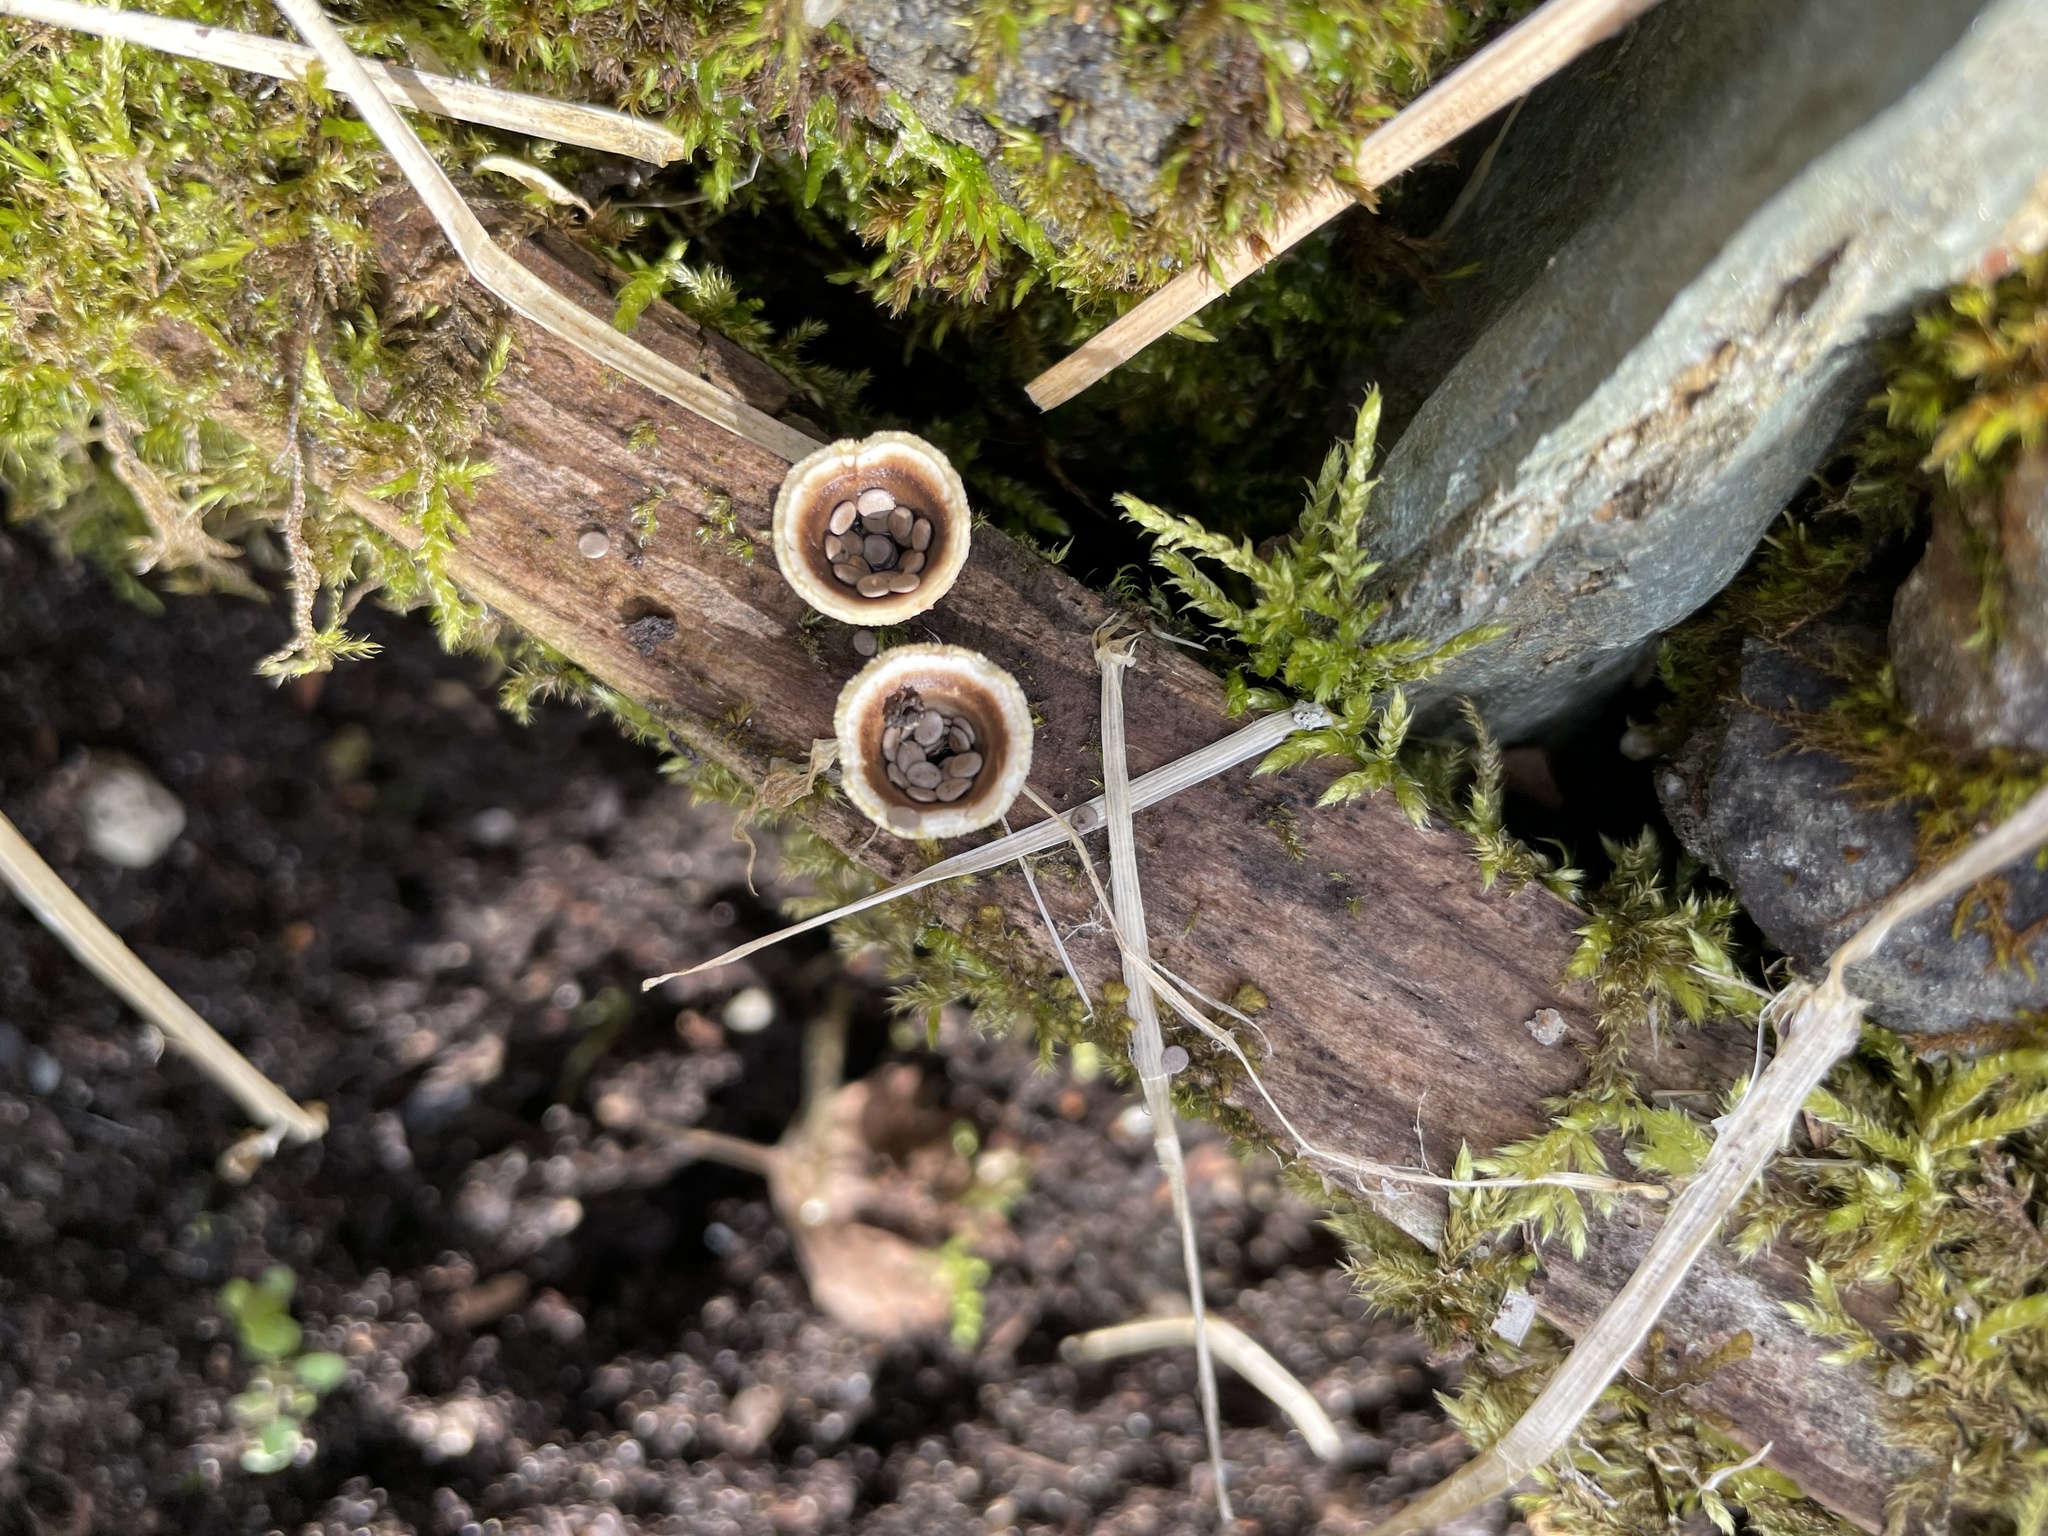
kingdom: Fungi
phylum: Basidiomycota
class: Agaricomycetes
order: Agaricales
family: Agaricaceae
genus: Nidula
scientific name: Nidula candida
